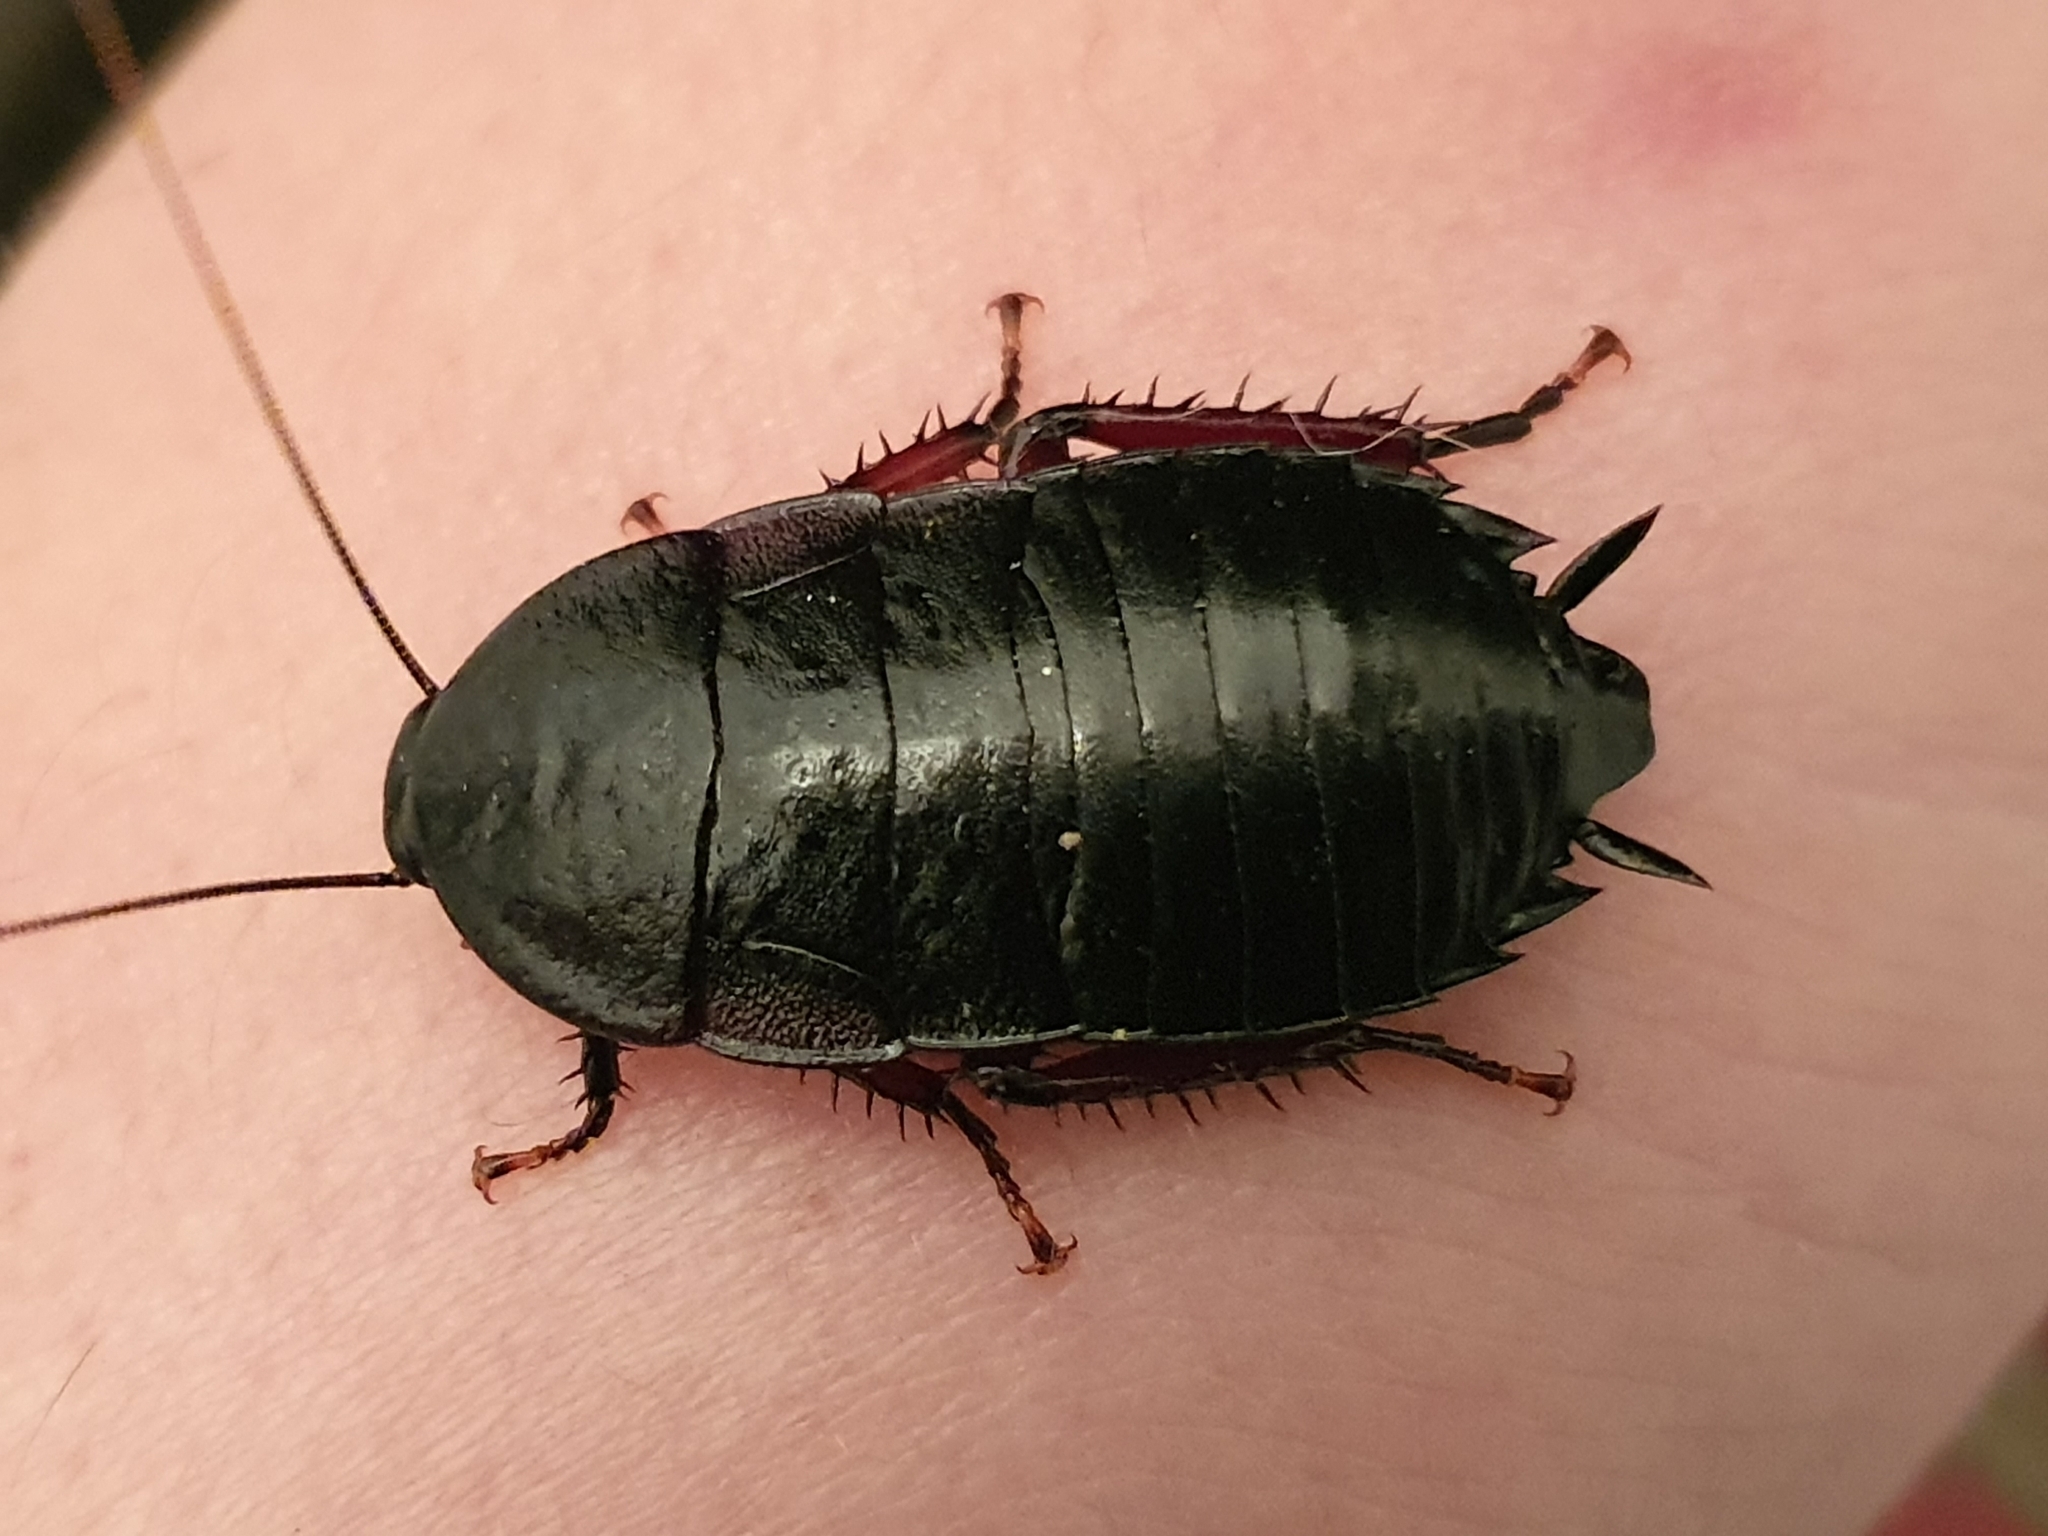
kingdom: Animalia
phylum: Arthropoda
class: Insecta
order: Blattodea
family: Blattidae
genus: Maoriblatta
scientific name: Maoriblatta novaeseelandiae
